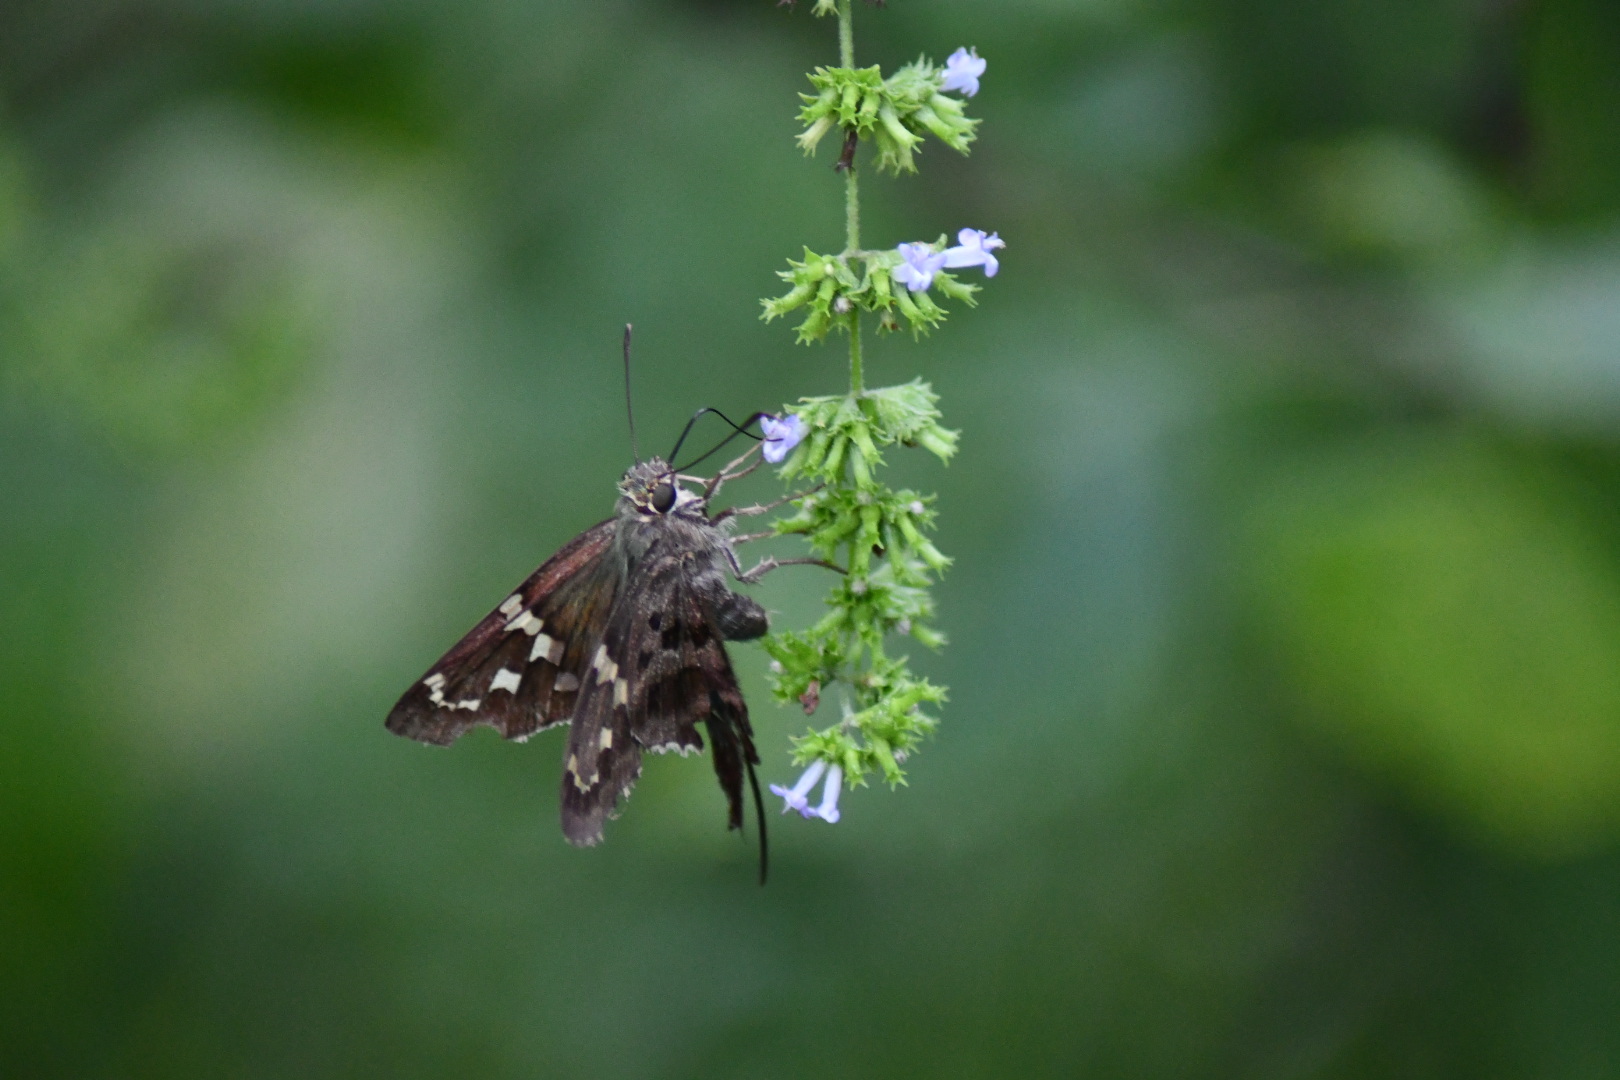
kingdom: Animalia
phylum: Arthropoda
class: Insecta
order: Lepidoptera
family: Hesperiidae
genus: Urbanus
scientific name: Urbanus proteus
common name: Long-tailed skipper
